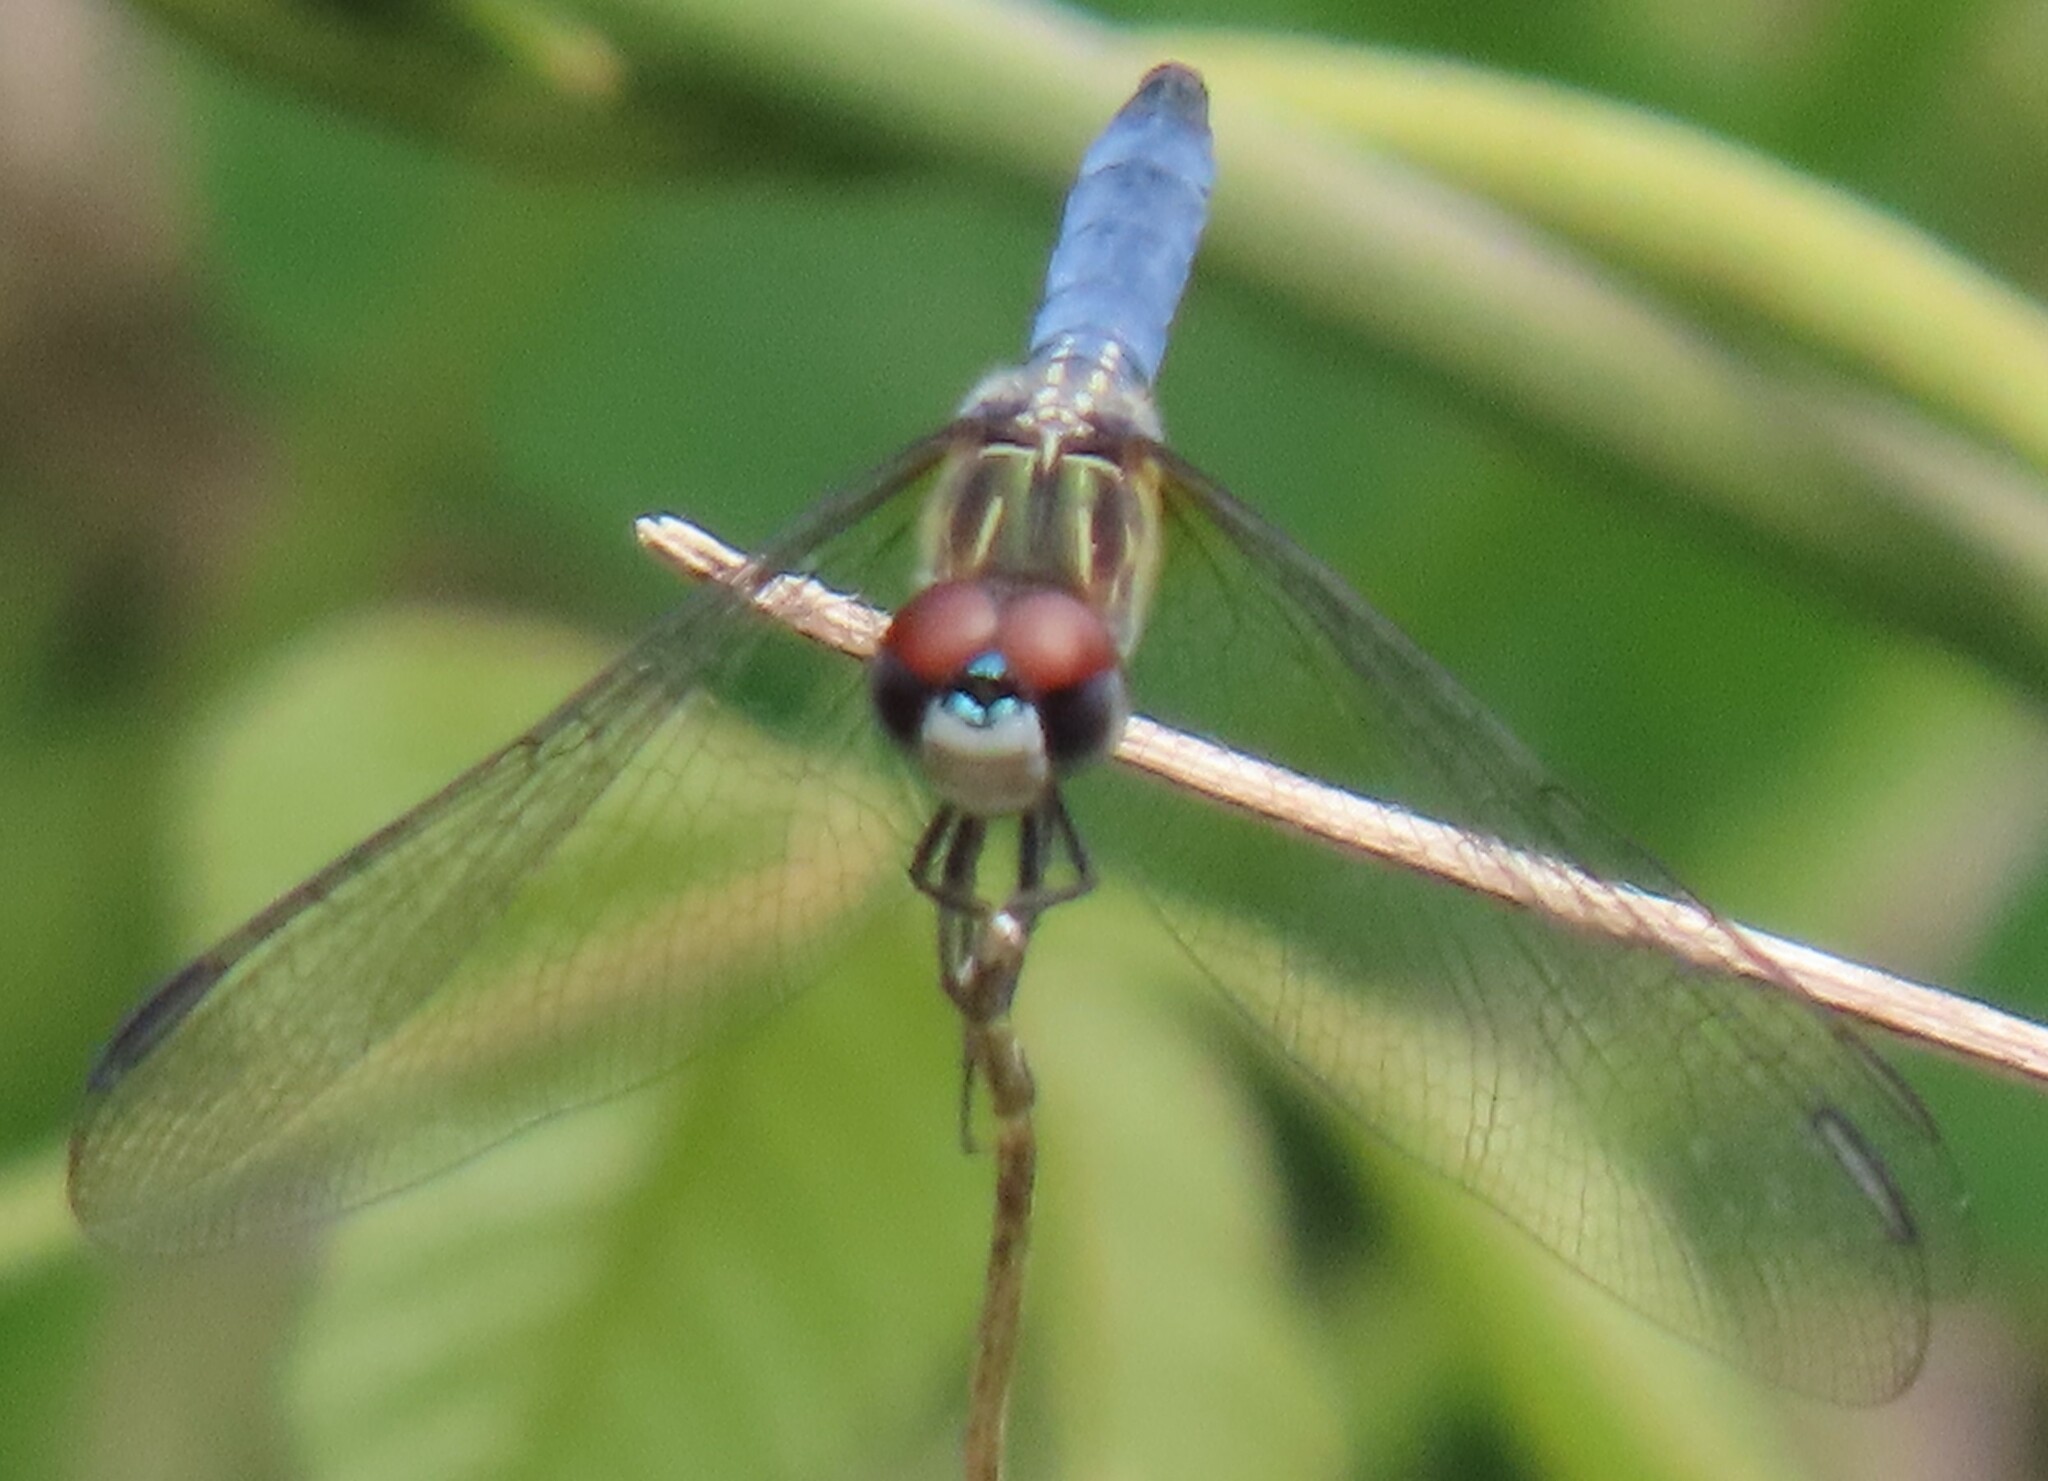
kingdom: Animalia
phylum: Arthropoda
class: Insecta
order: Odonata
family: Libellulidae
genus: Pachydiplax
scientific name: Pachydiplax longipennis
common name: Blue dasher
